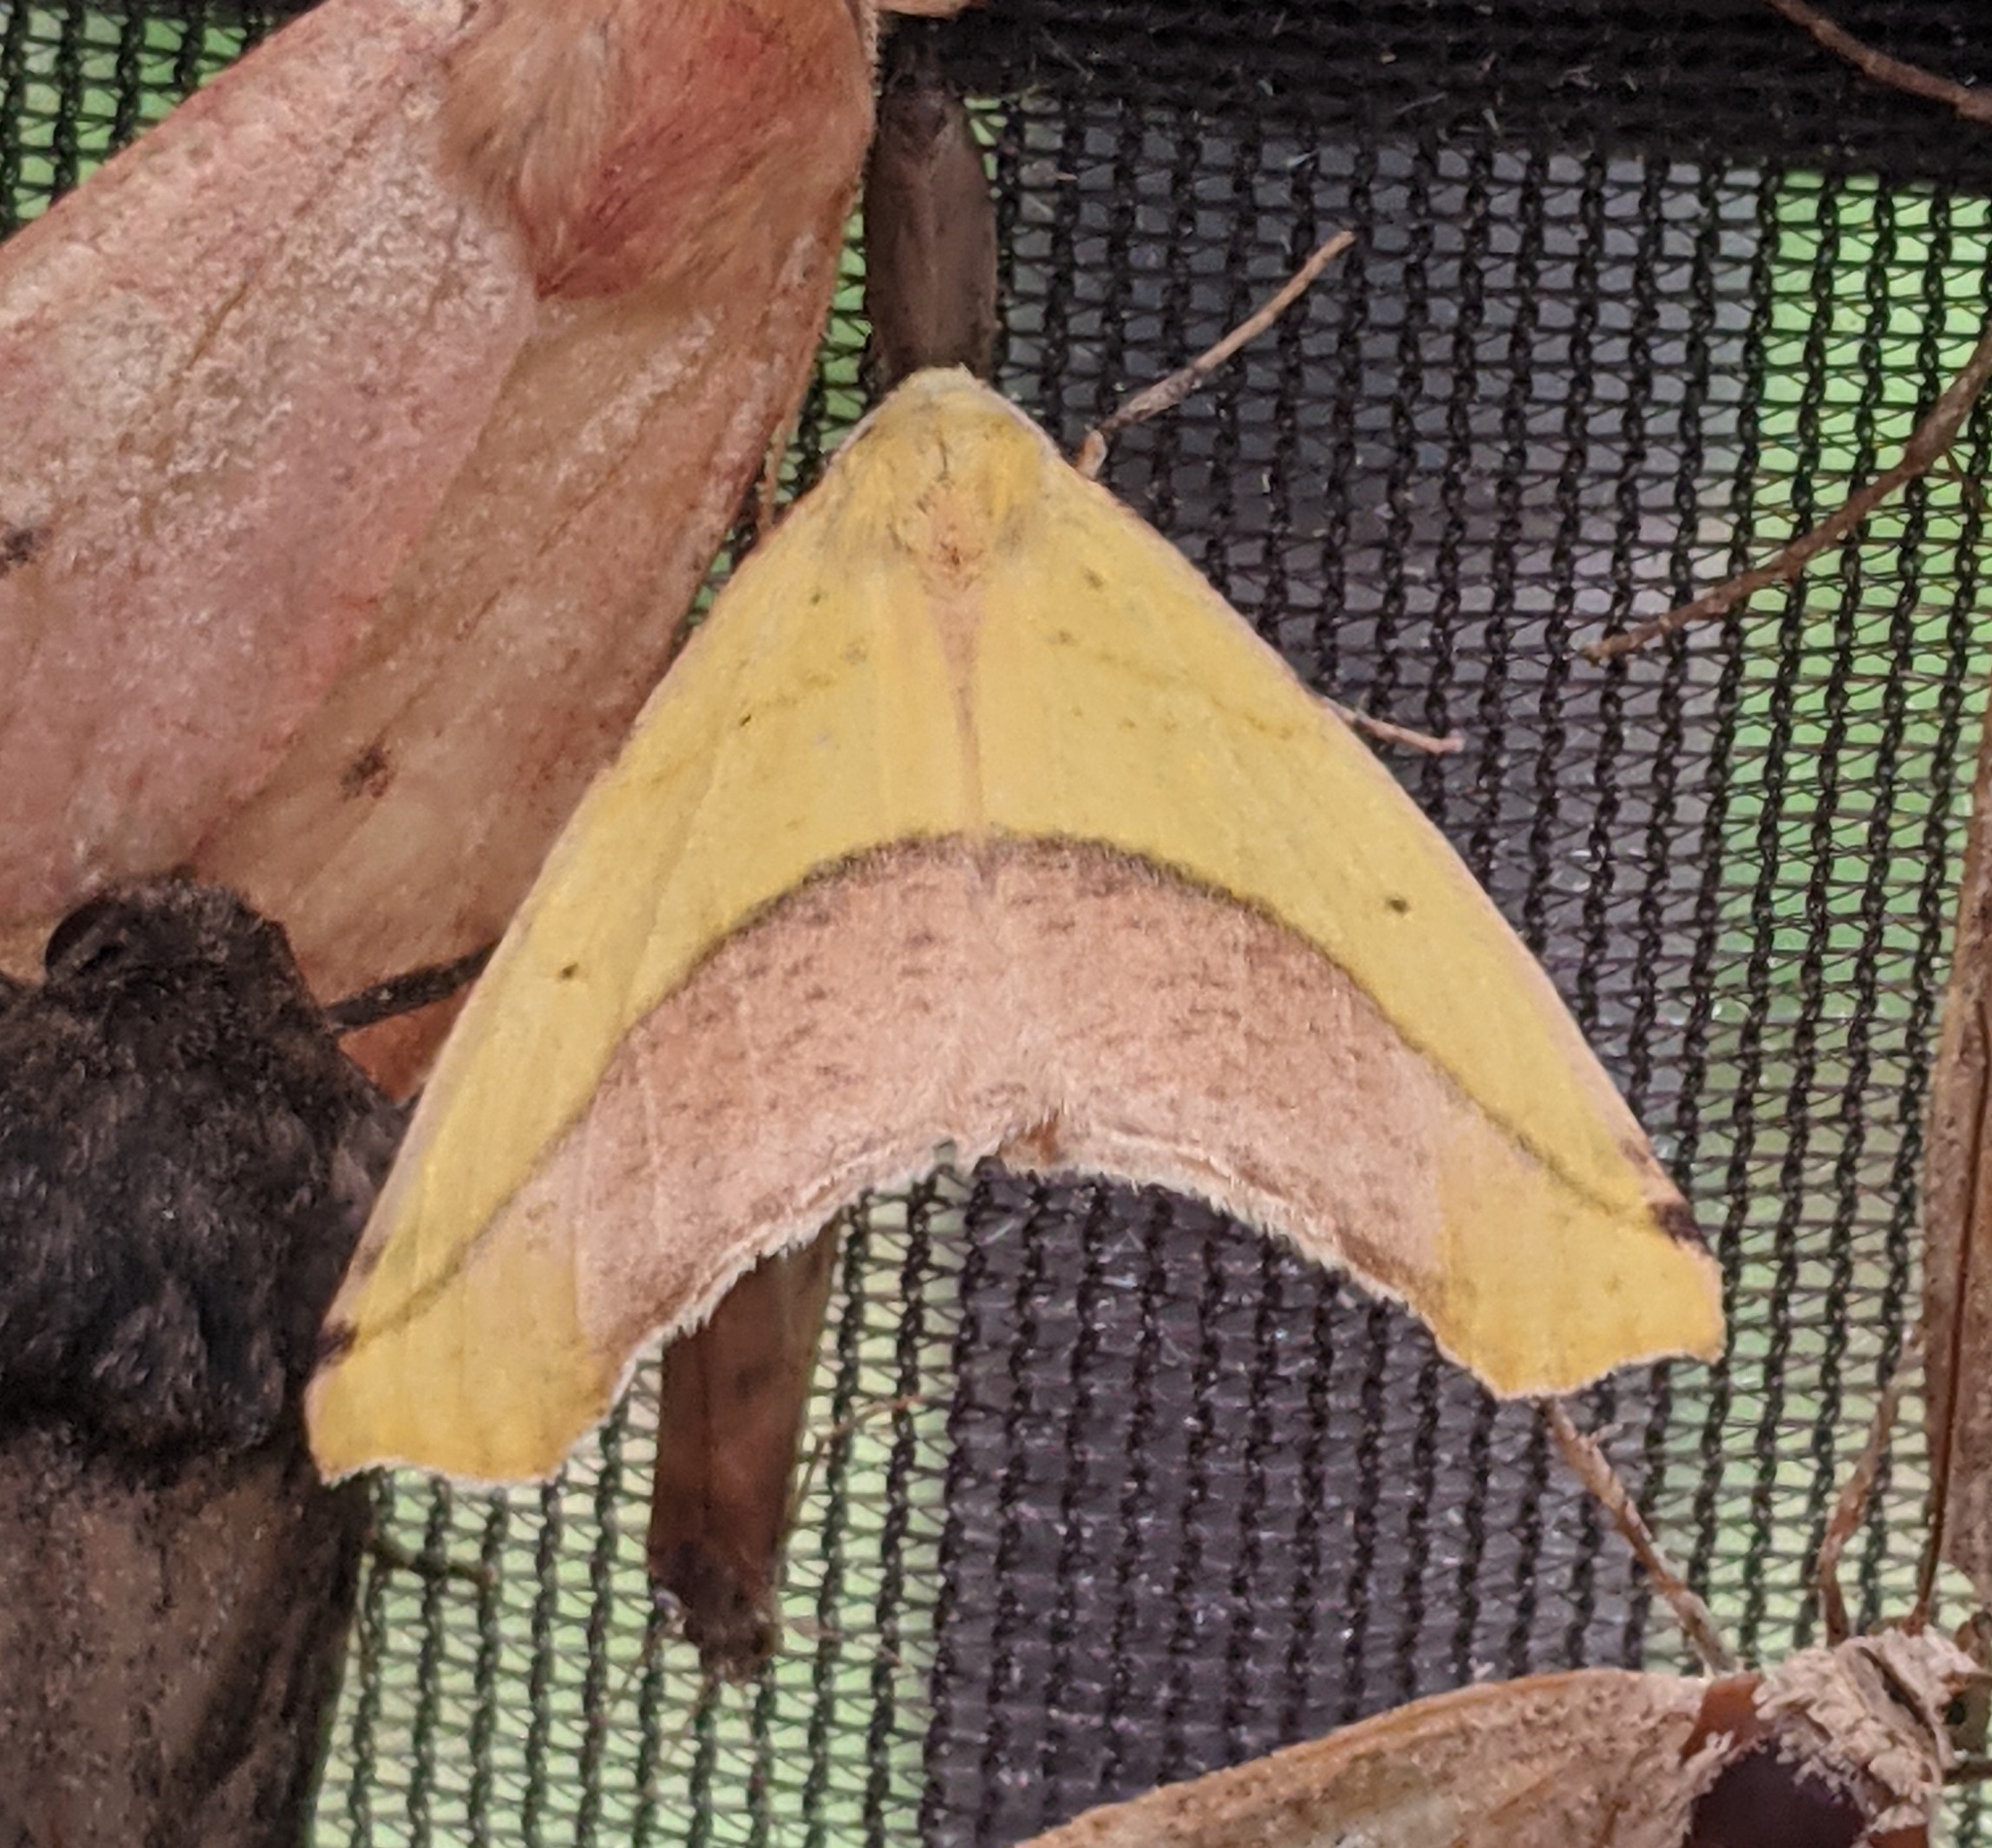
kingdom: Animalia
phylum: Arthropoda
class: Insecta
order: Lepidoptera
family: Geometridae
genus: Sicya
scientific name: Sicya macularia
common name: Sharp-lined yellow
